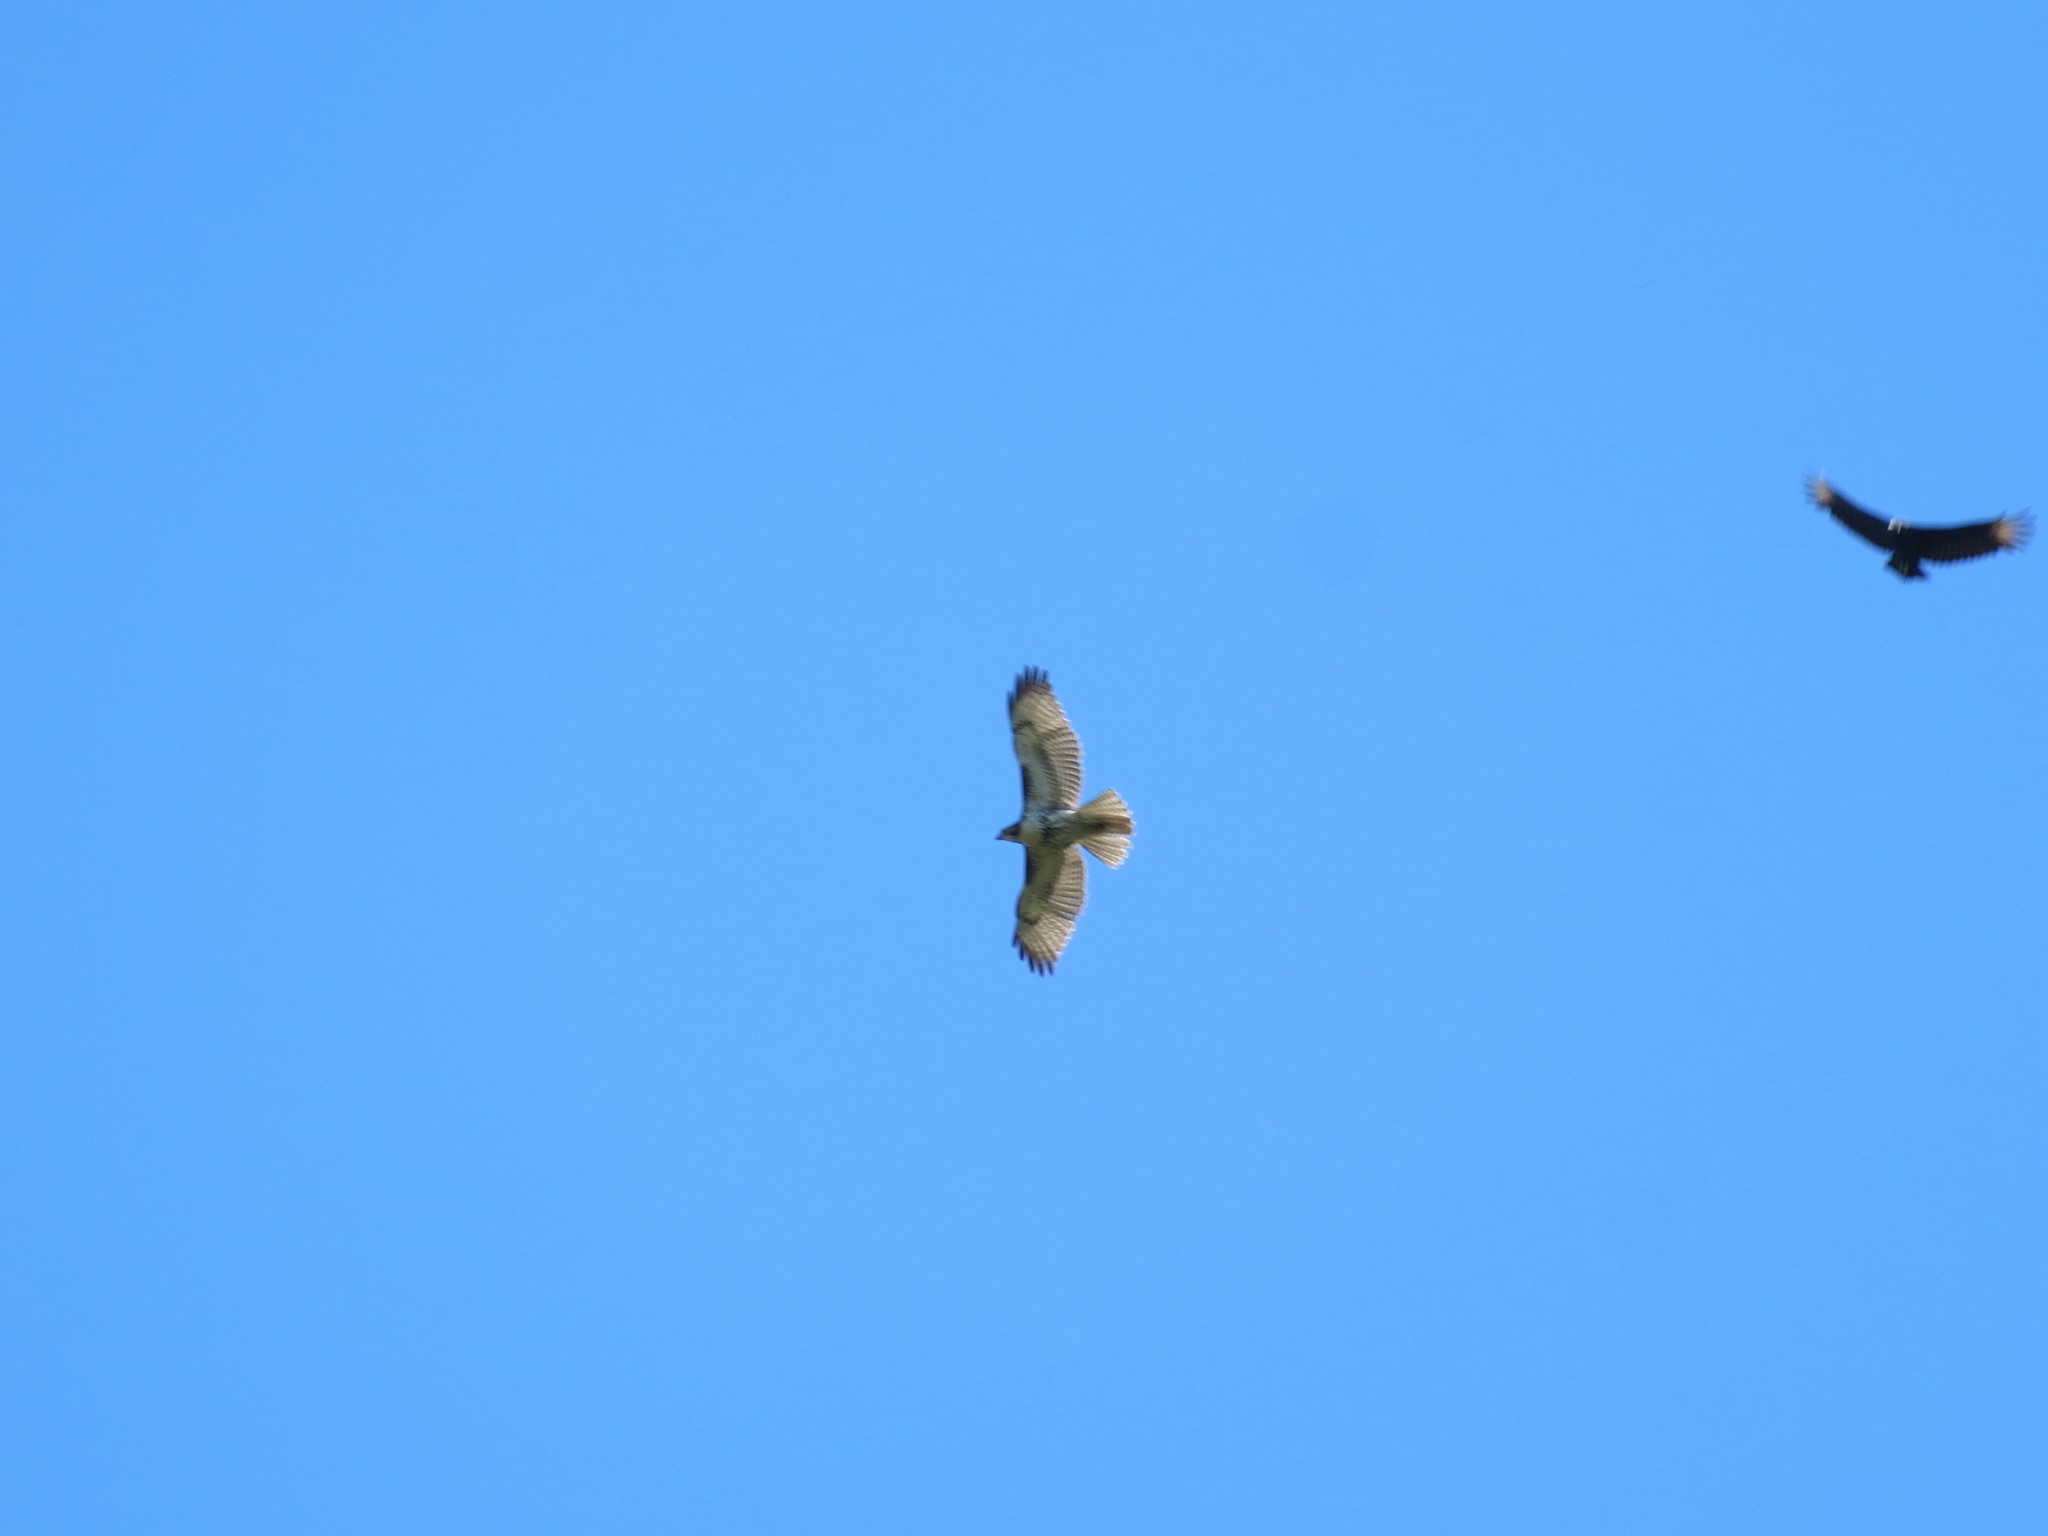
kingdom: Animalia
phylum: Chordata
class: Aves
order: Accipitriformes
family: Accipitridae
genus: Buteo
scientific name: Buteo jamaicensis
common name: Red-tailed hawk
